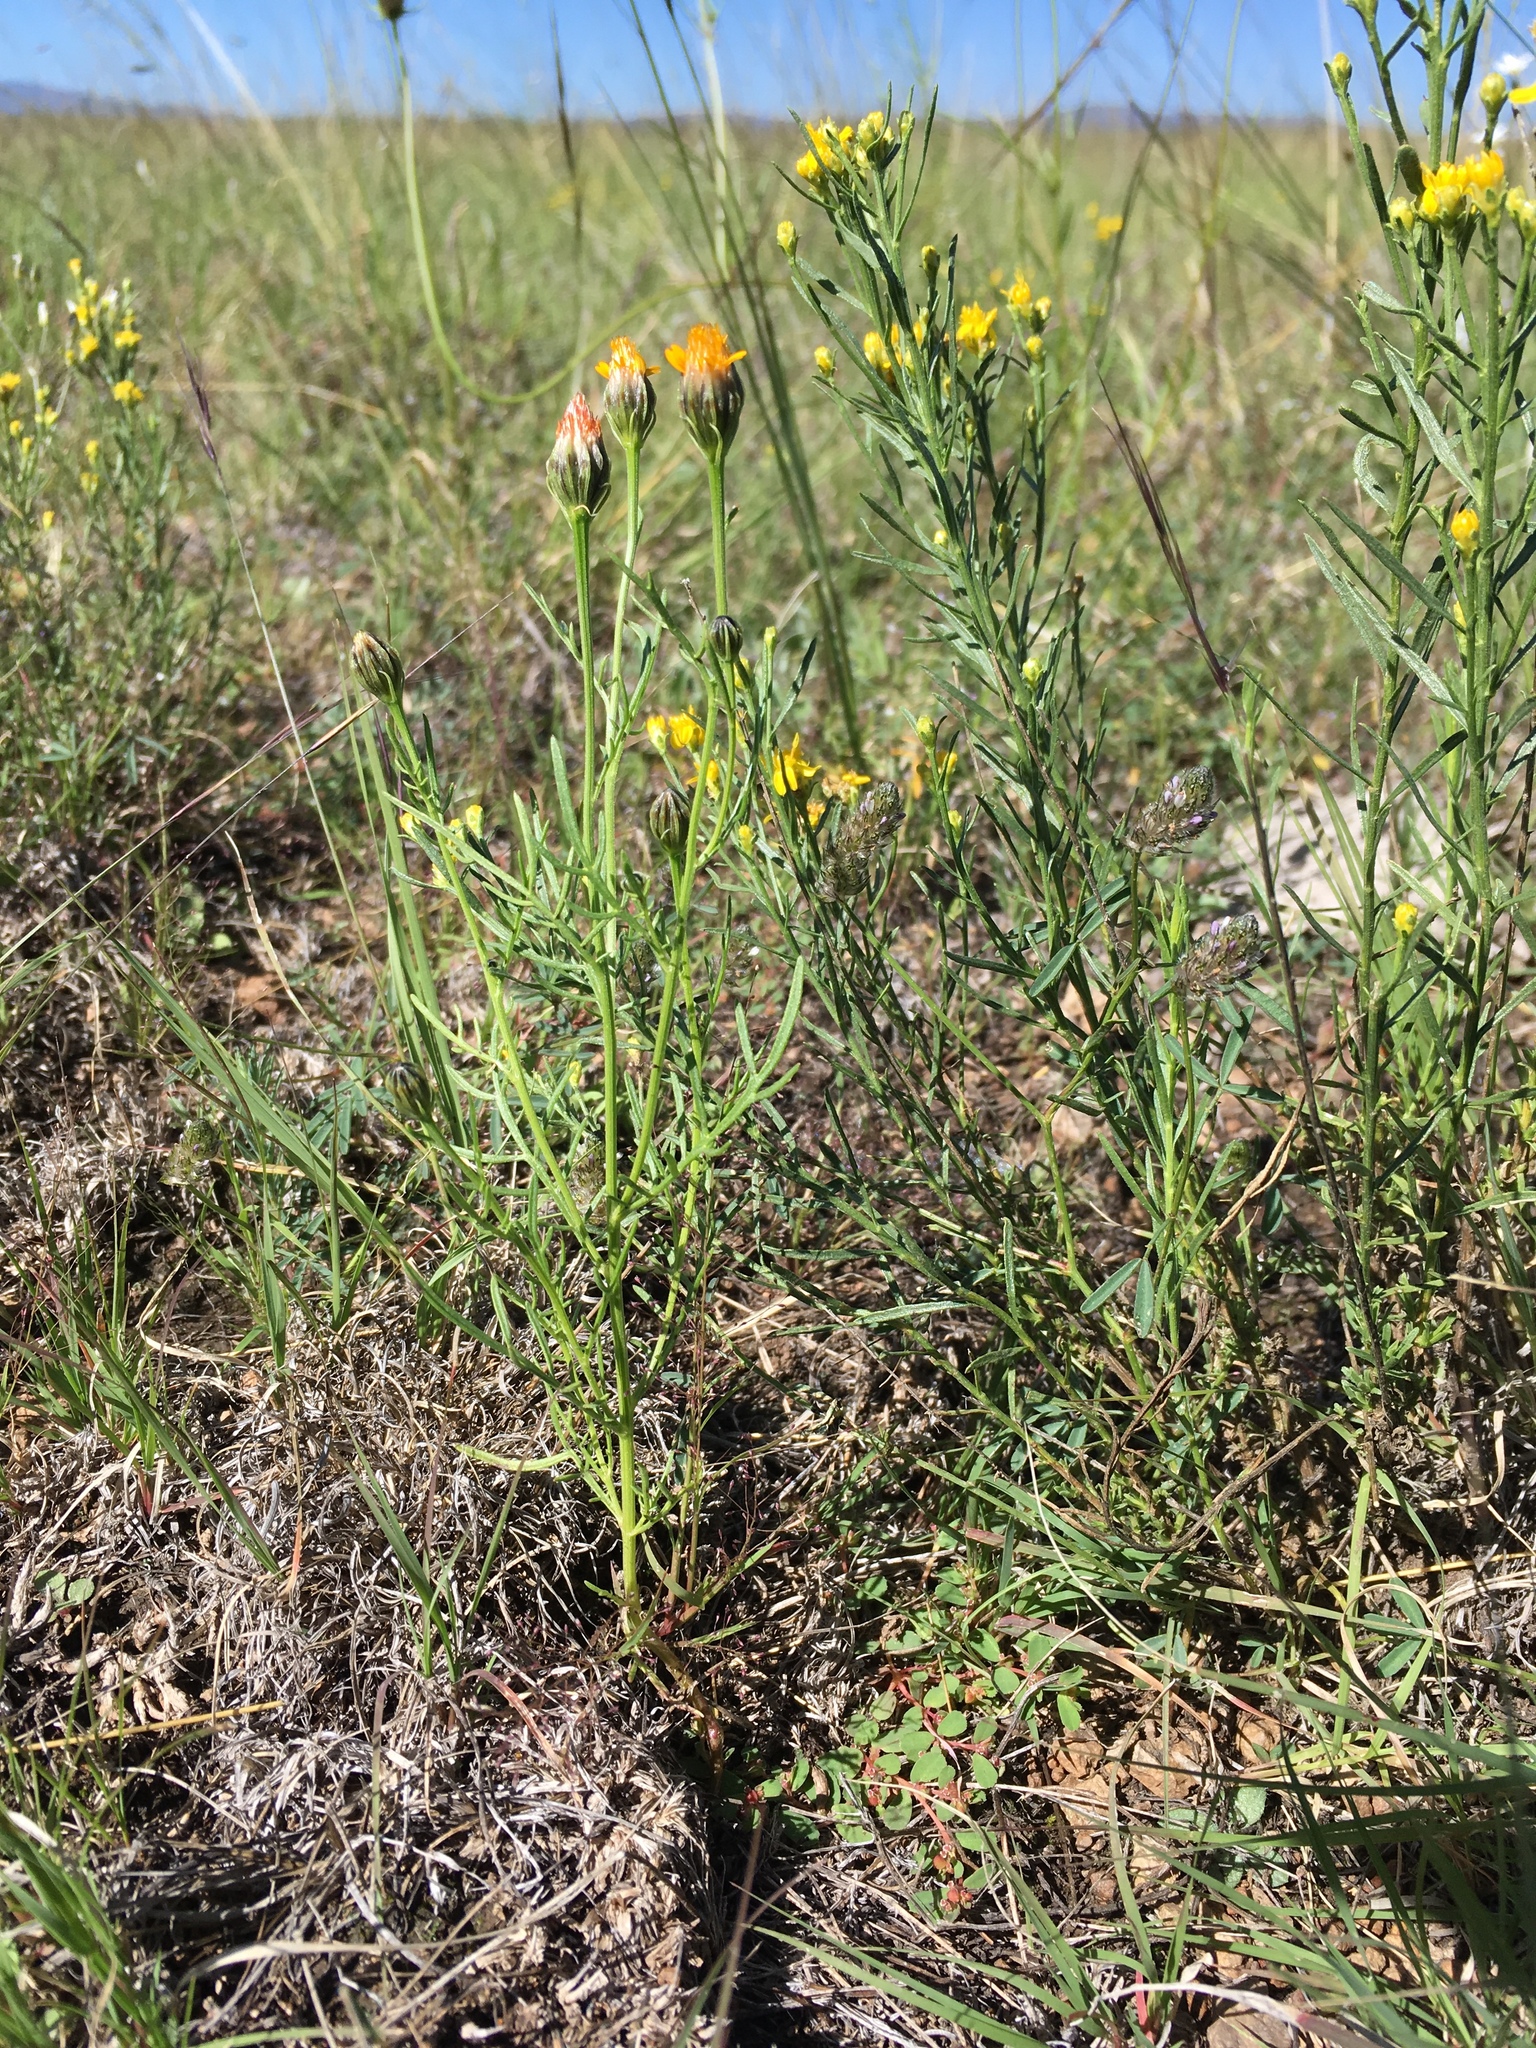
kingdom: Plantae
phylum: Tracheophyta
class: Magnoliopsida
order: Asterales
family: Asteraceae
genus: Adenophyllum
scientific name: Adenophyllum wrightii
